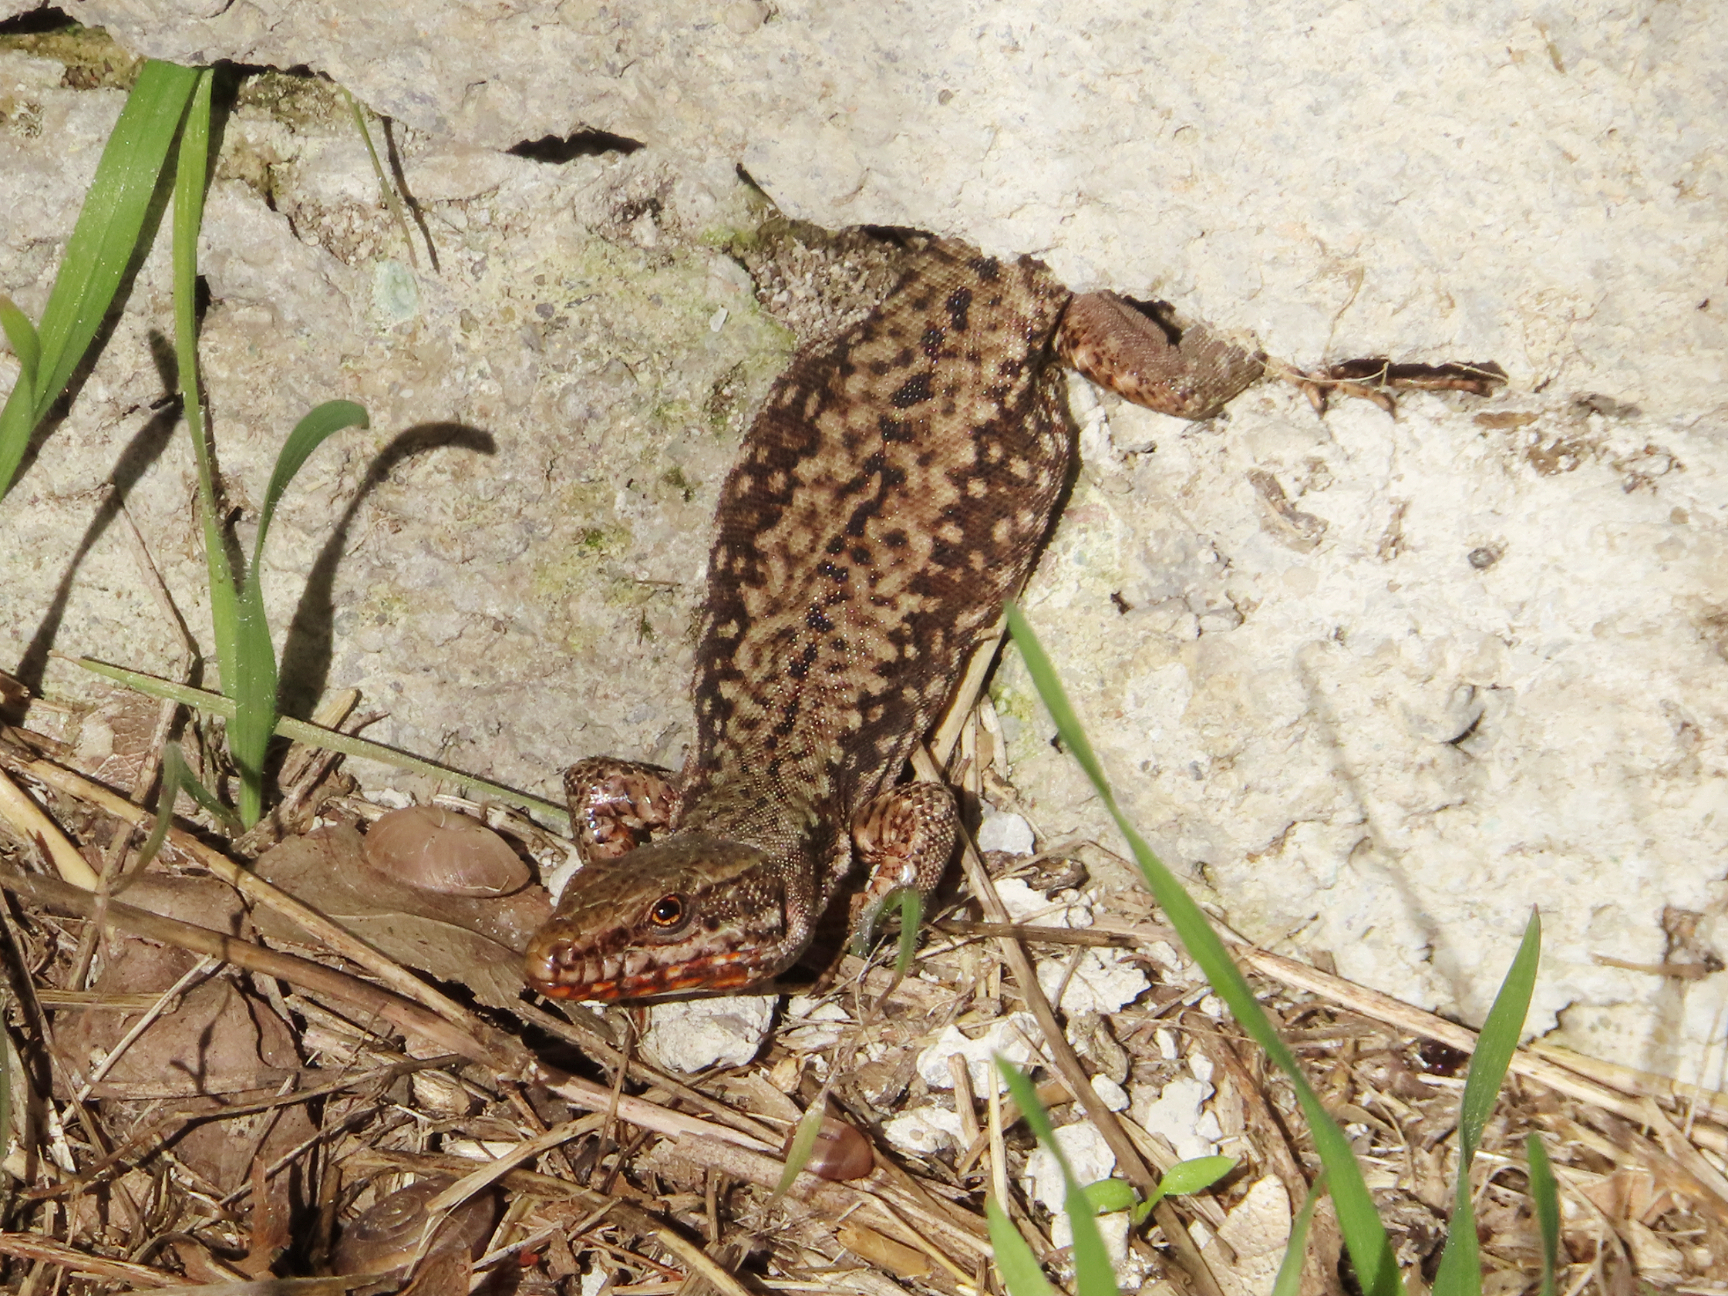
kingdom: Animalia
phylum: Chordata
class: Squamata
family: Lacertidae
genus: Podarcis
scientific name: Podarcis muralis
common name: Common wall lizard
